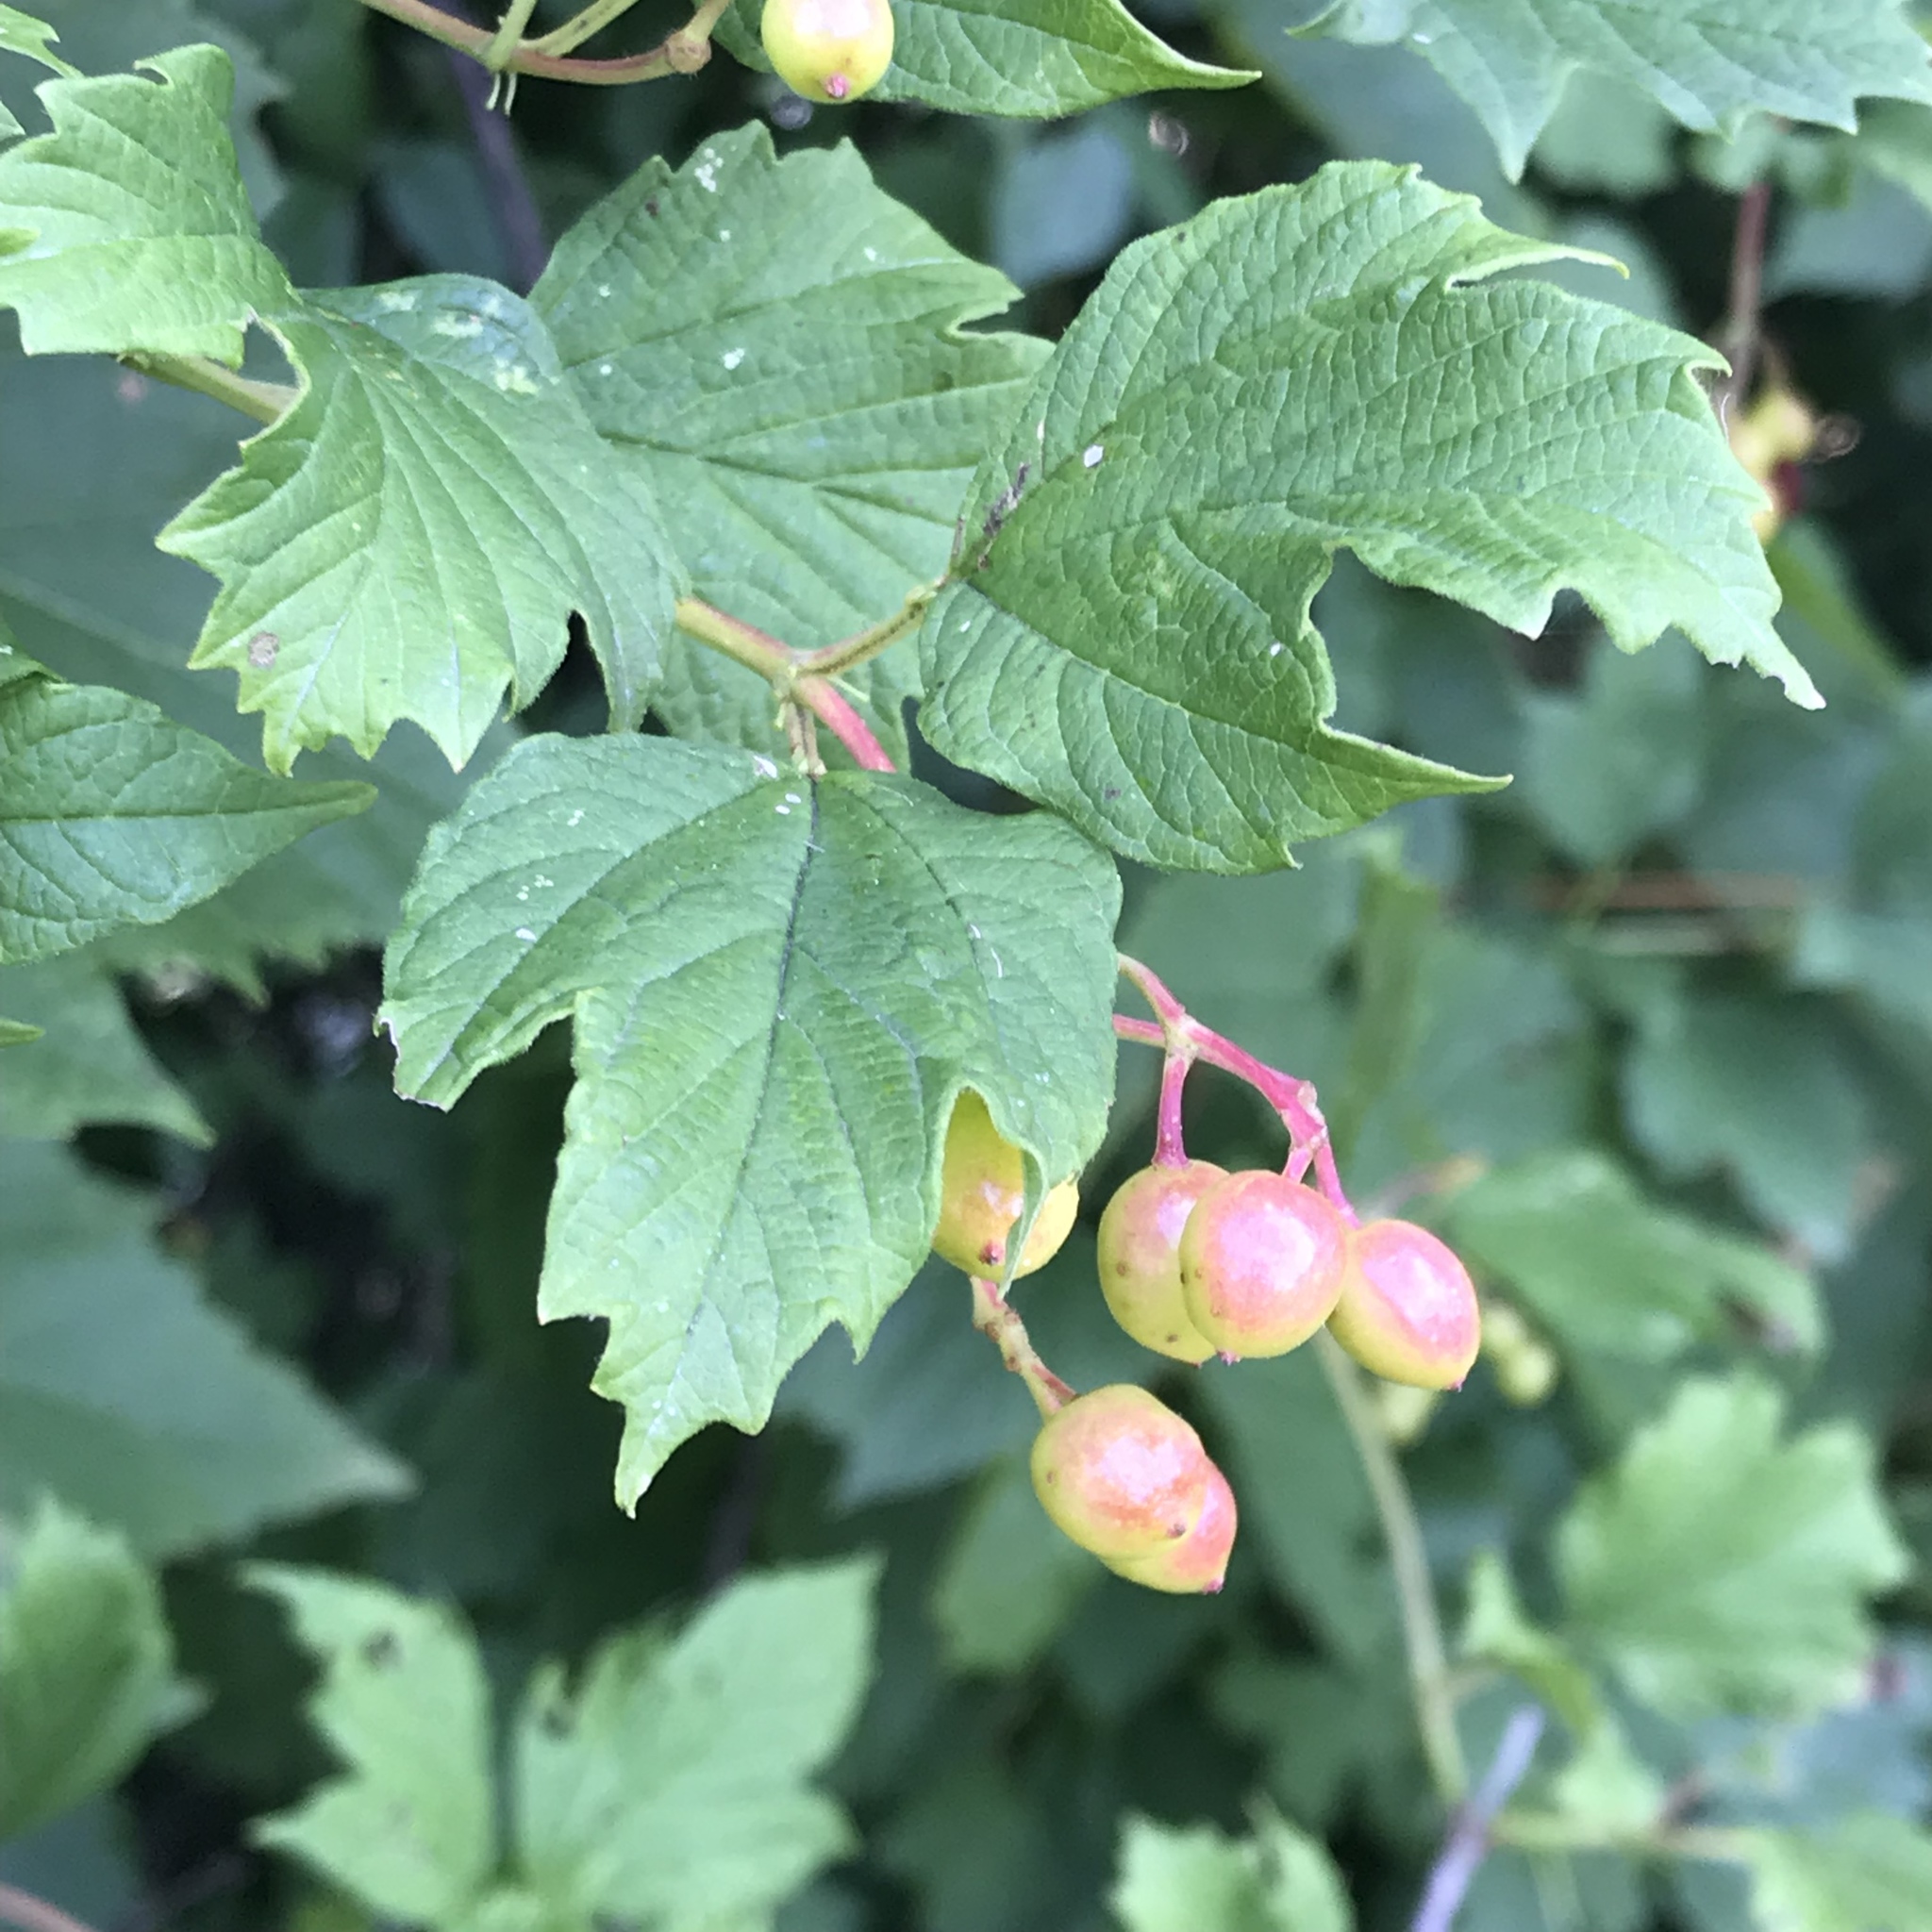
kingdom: Plantae
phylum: Tracheophyta
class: Magnoliopsida
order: Dipsacales
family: Viburnaceae
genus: Viburnum
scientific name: Viburnum opulus
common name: Guelder-rose
